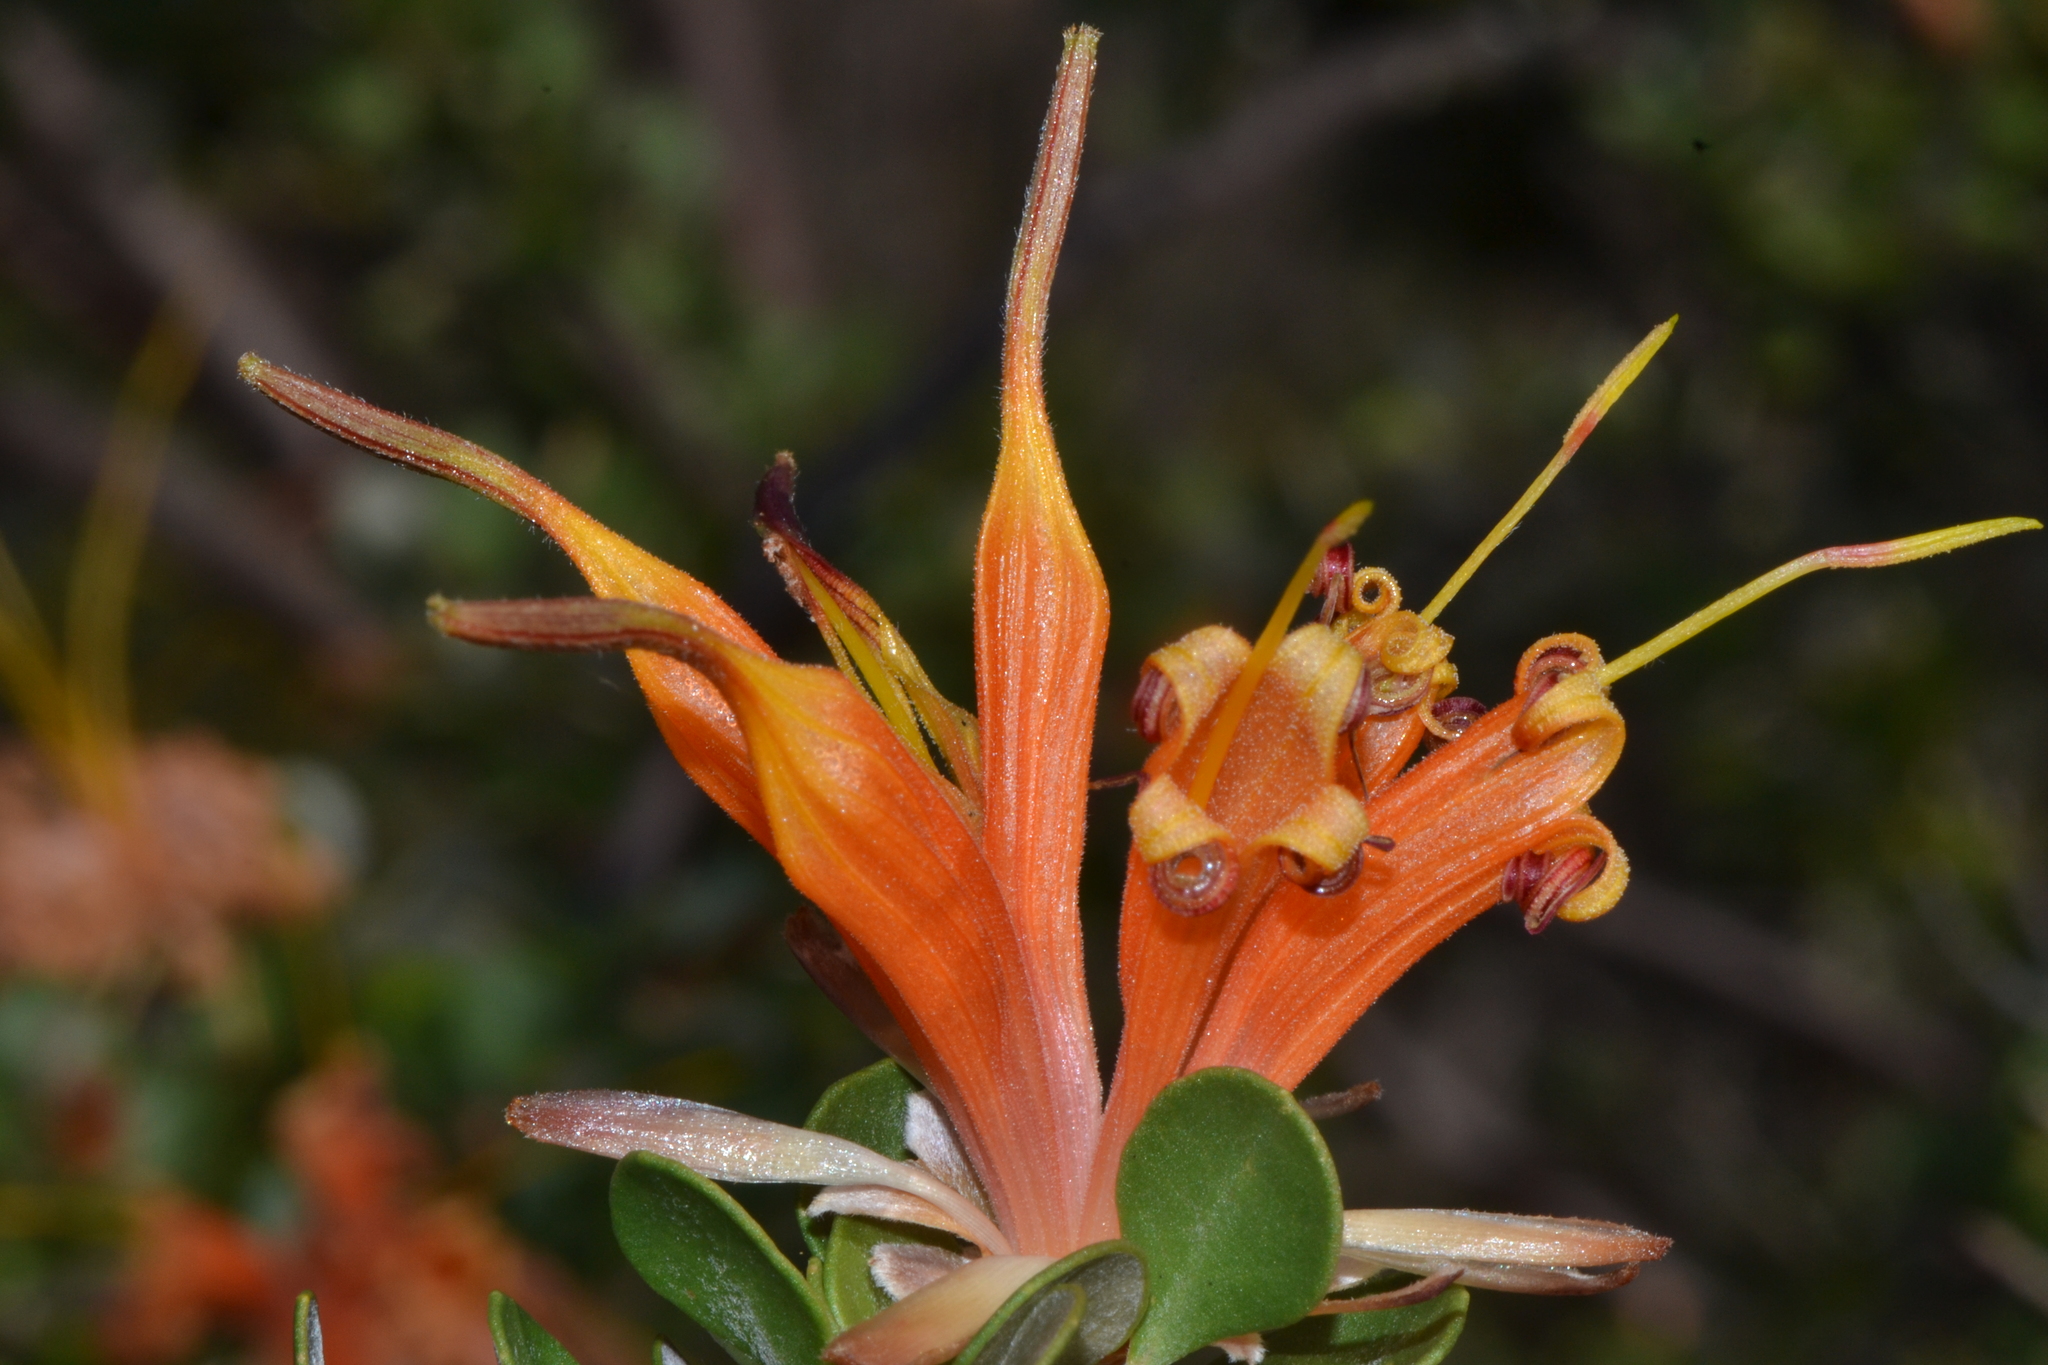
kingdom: Plantae
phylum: Tracheophyta
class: Magnoliopsida
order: Proteales
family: Proteaceae
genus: Lambertia
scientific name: Lambertia inermis
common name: Chittick
